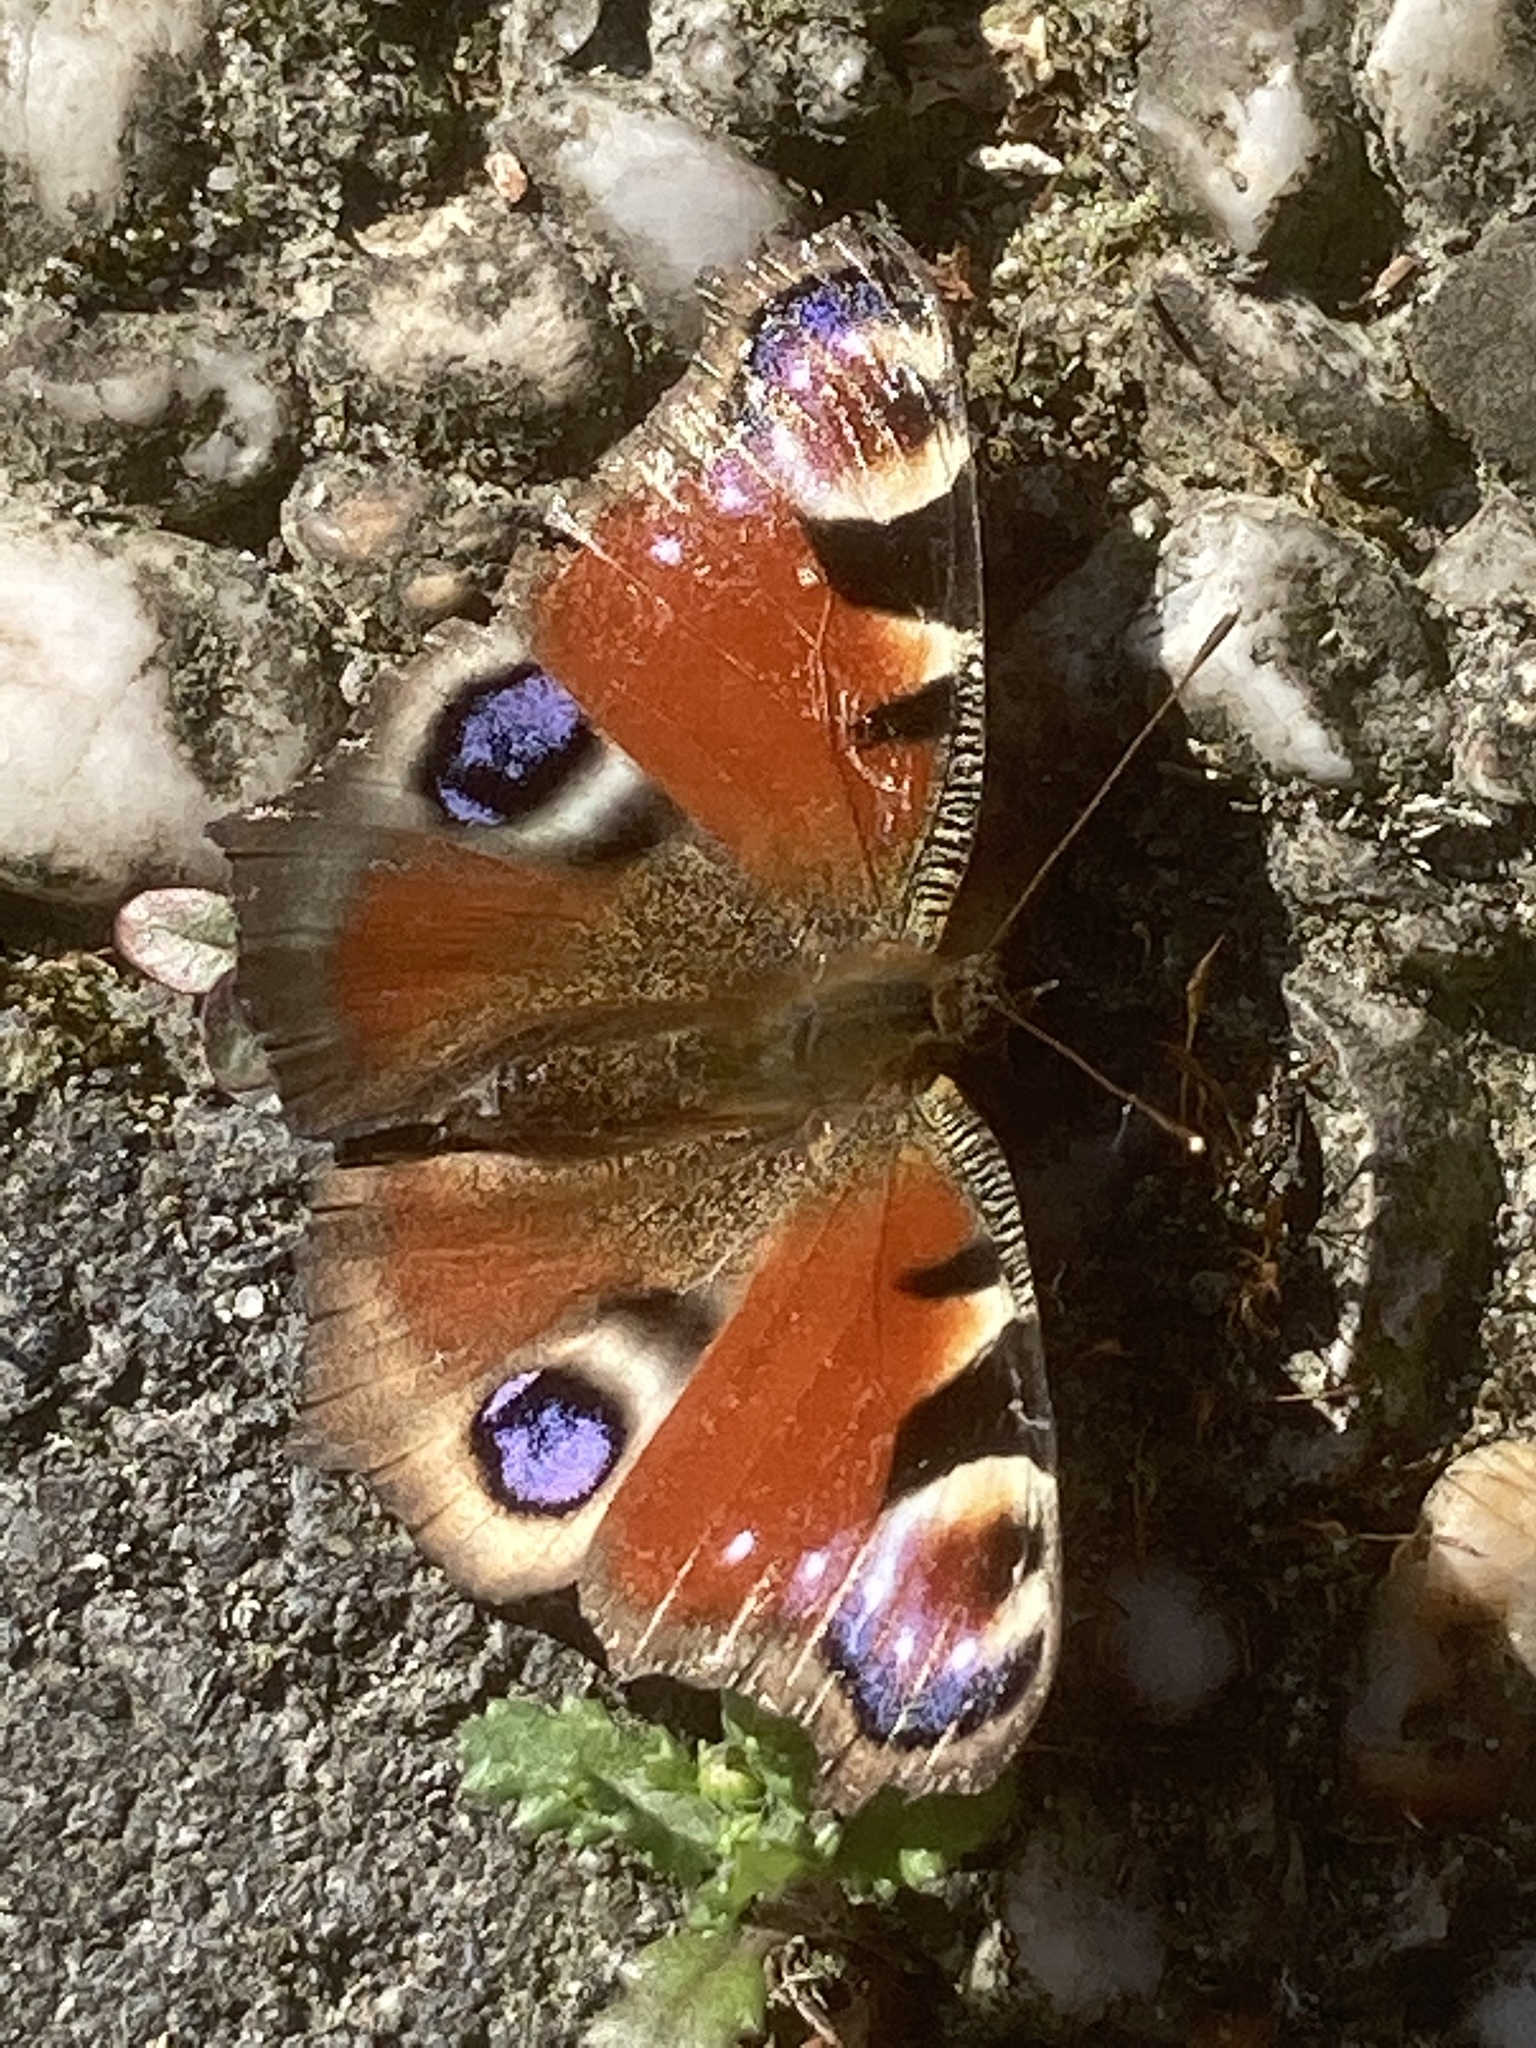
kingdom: Animalia
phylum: Arthropoda
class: Insecta
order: Lepidoptera
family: Nymphalidae
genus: Aglais
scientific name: Aglais io
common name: Peacock
